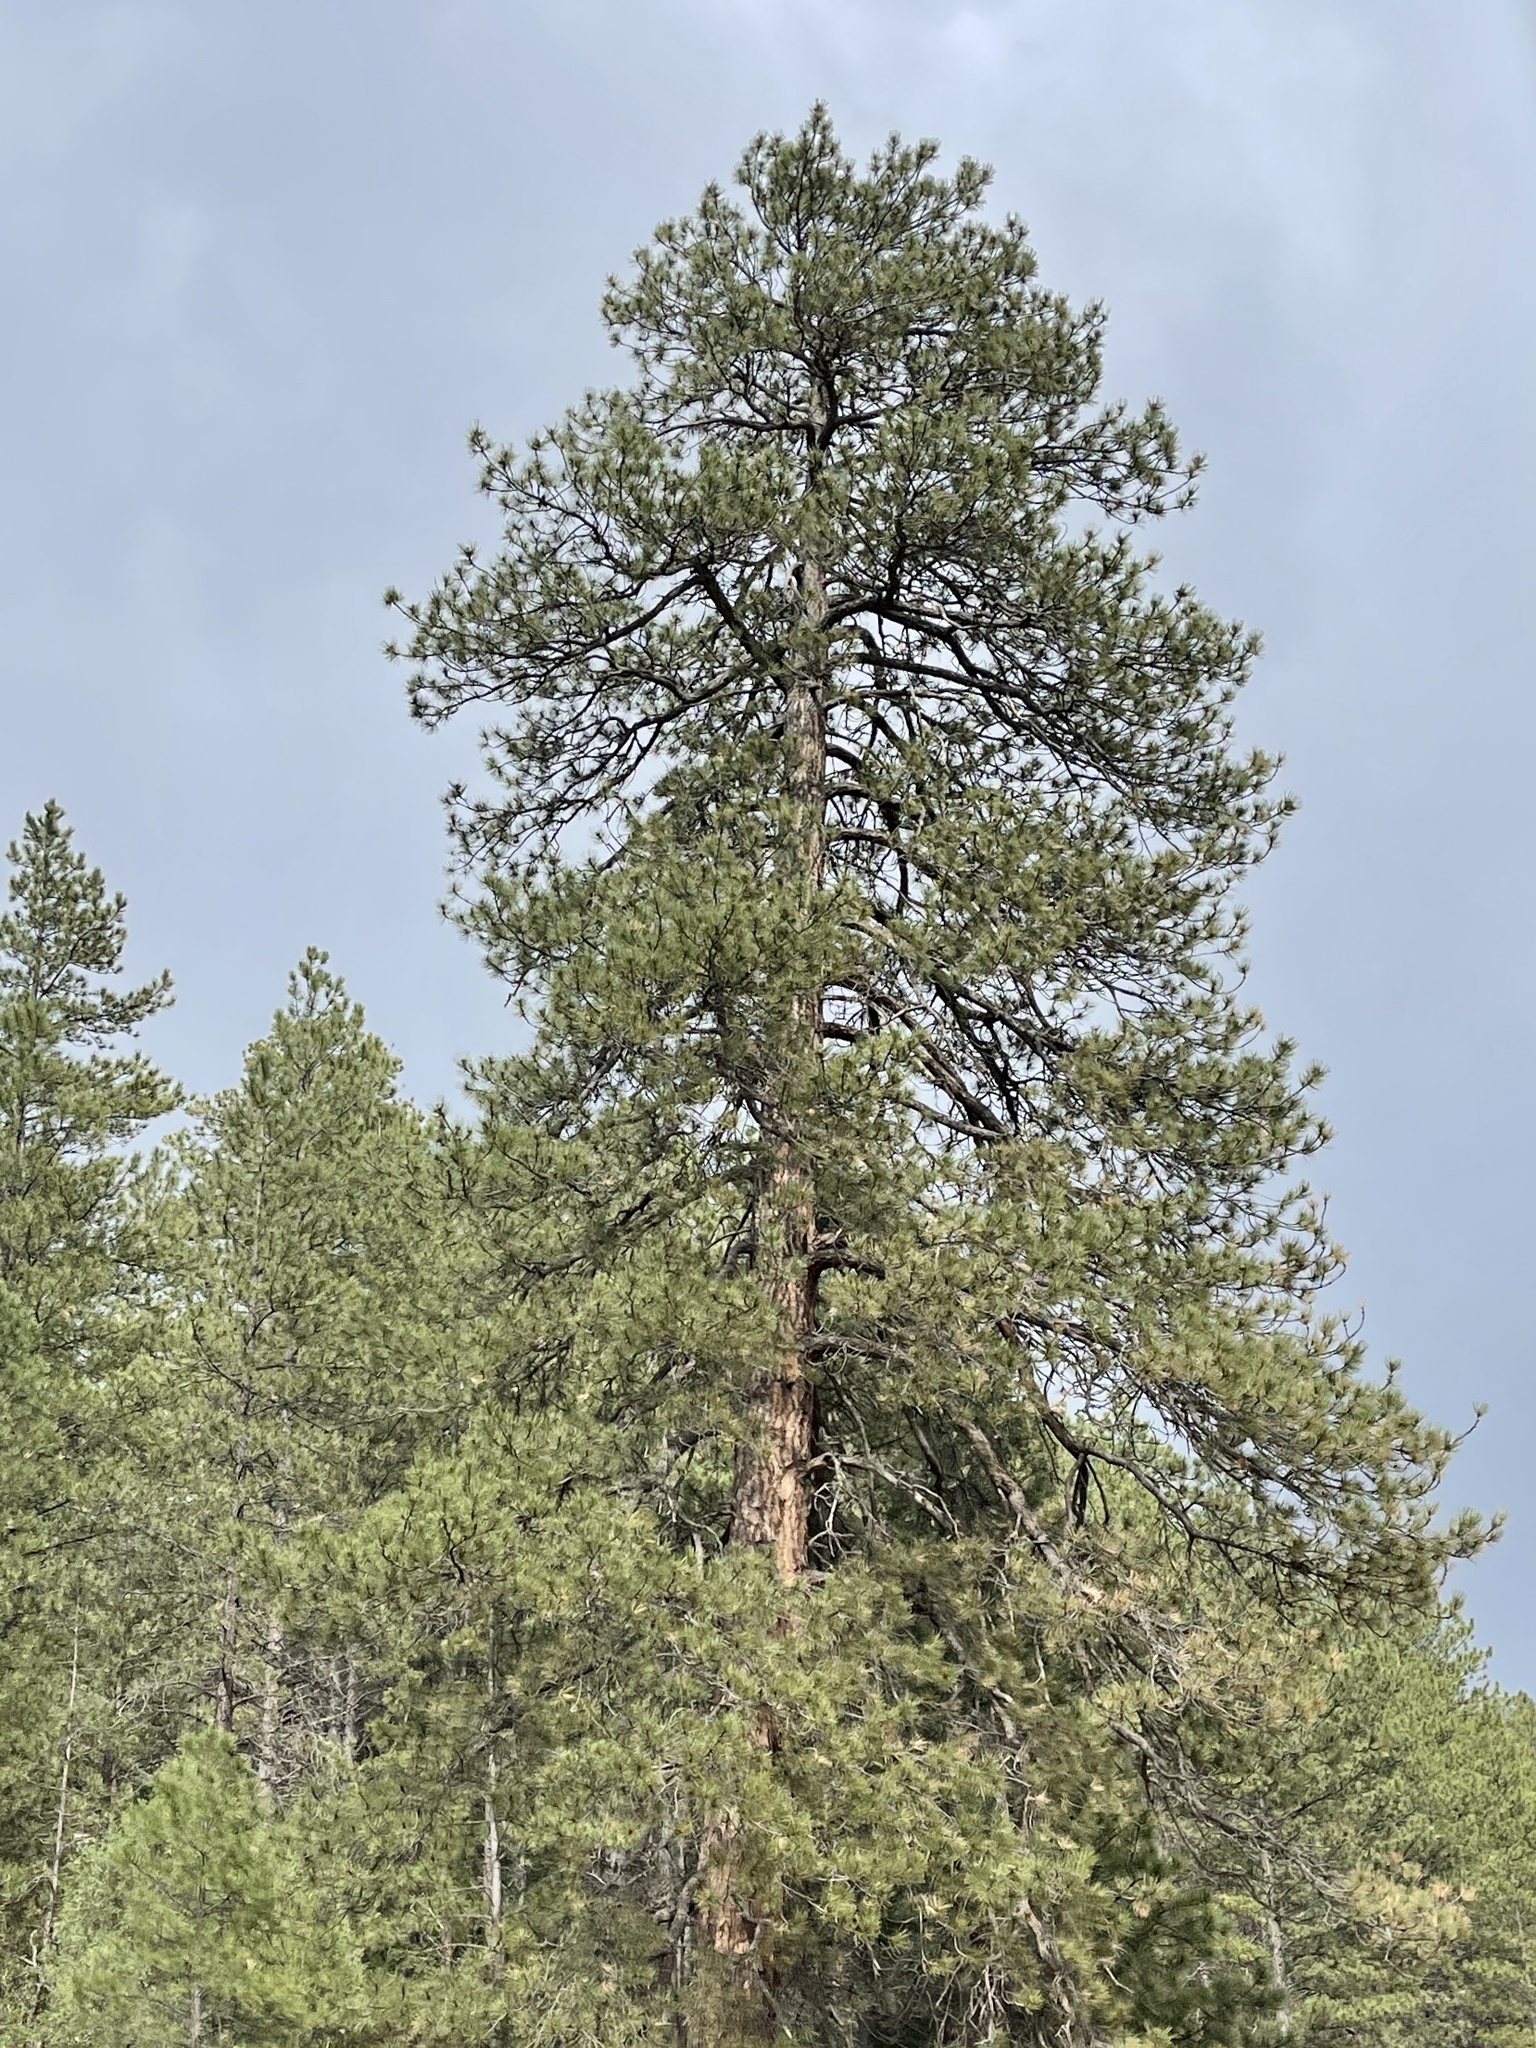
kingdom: Plantae
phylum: Tracheophyta
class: Pinopsida
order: Pinales
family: Pinaceae
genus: Pinus
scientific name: Pinus ponderosa
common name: Western yellow-pine
